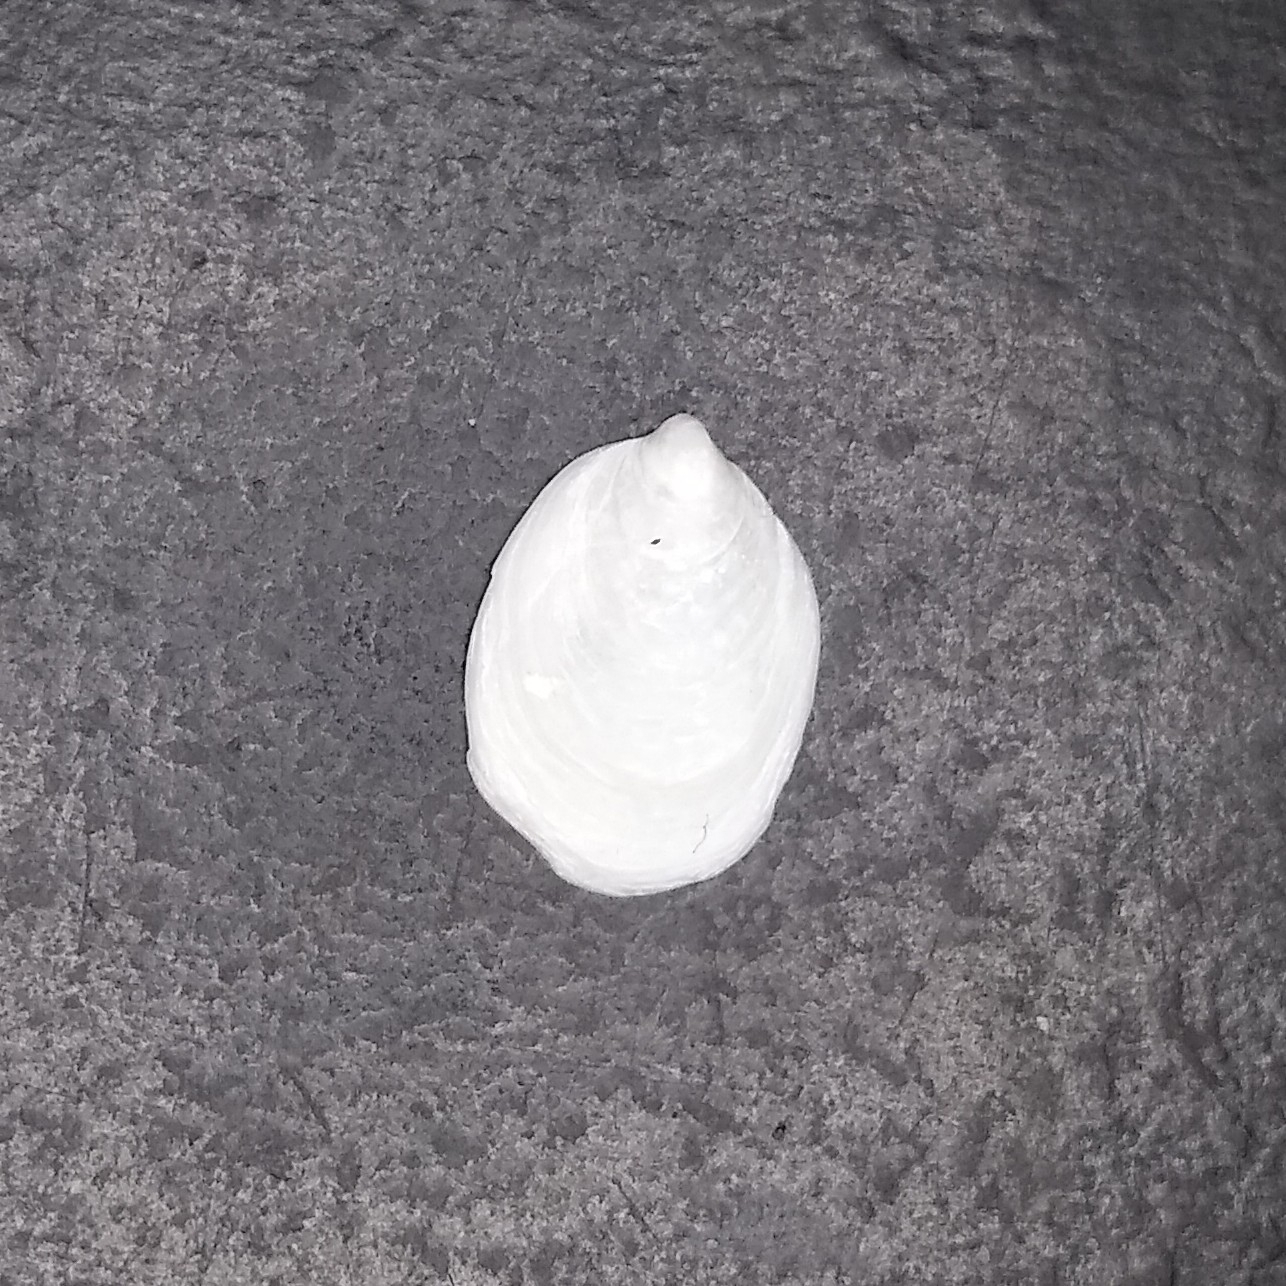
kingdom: Animalia
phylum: Mollusca
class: Gastropoda
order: Littorinimorpha
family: Calyptraeidae
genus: Crepidula
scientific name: Crepidula
